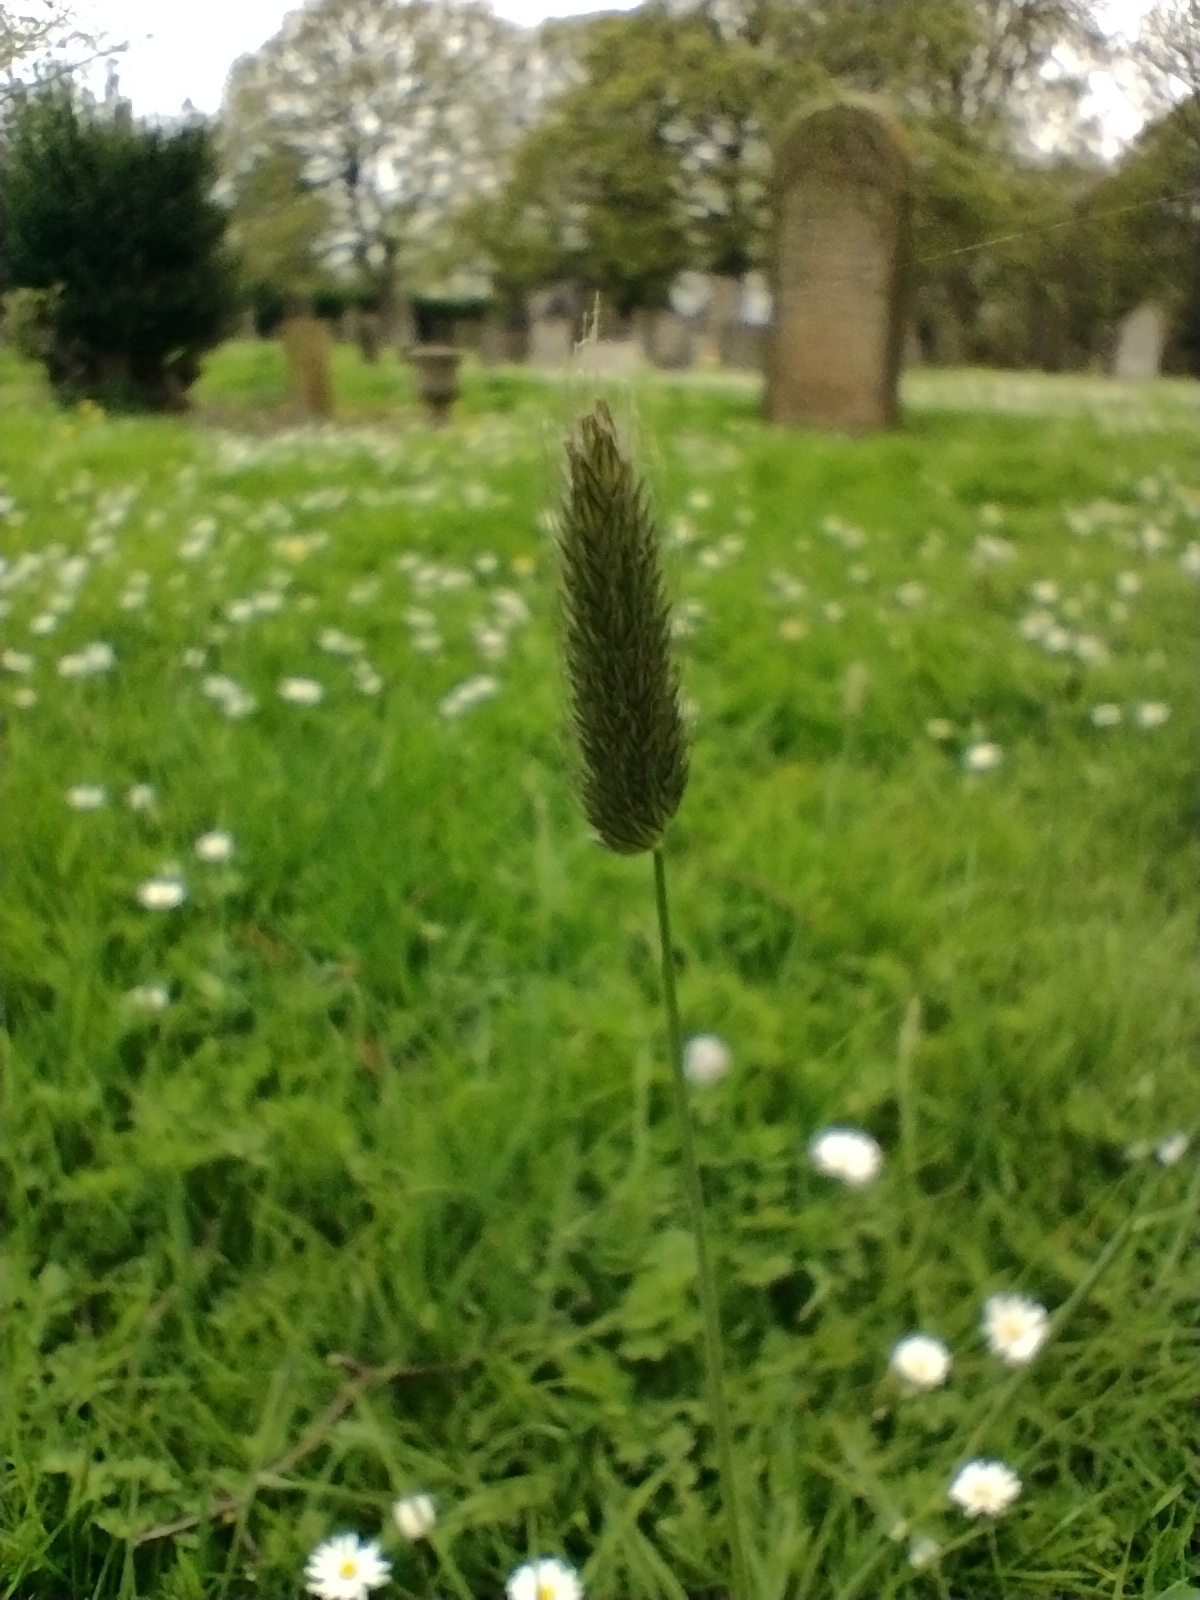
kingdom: Plantae
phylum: Tracheophyta
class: Liliopsida
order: Poales
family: Poaceae
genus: Alopecurus
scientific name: Alopecurus pratensis
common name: Meadow foxtail
